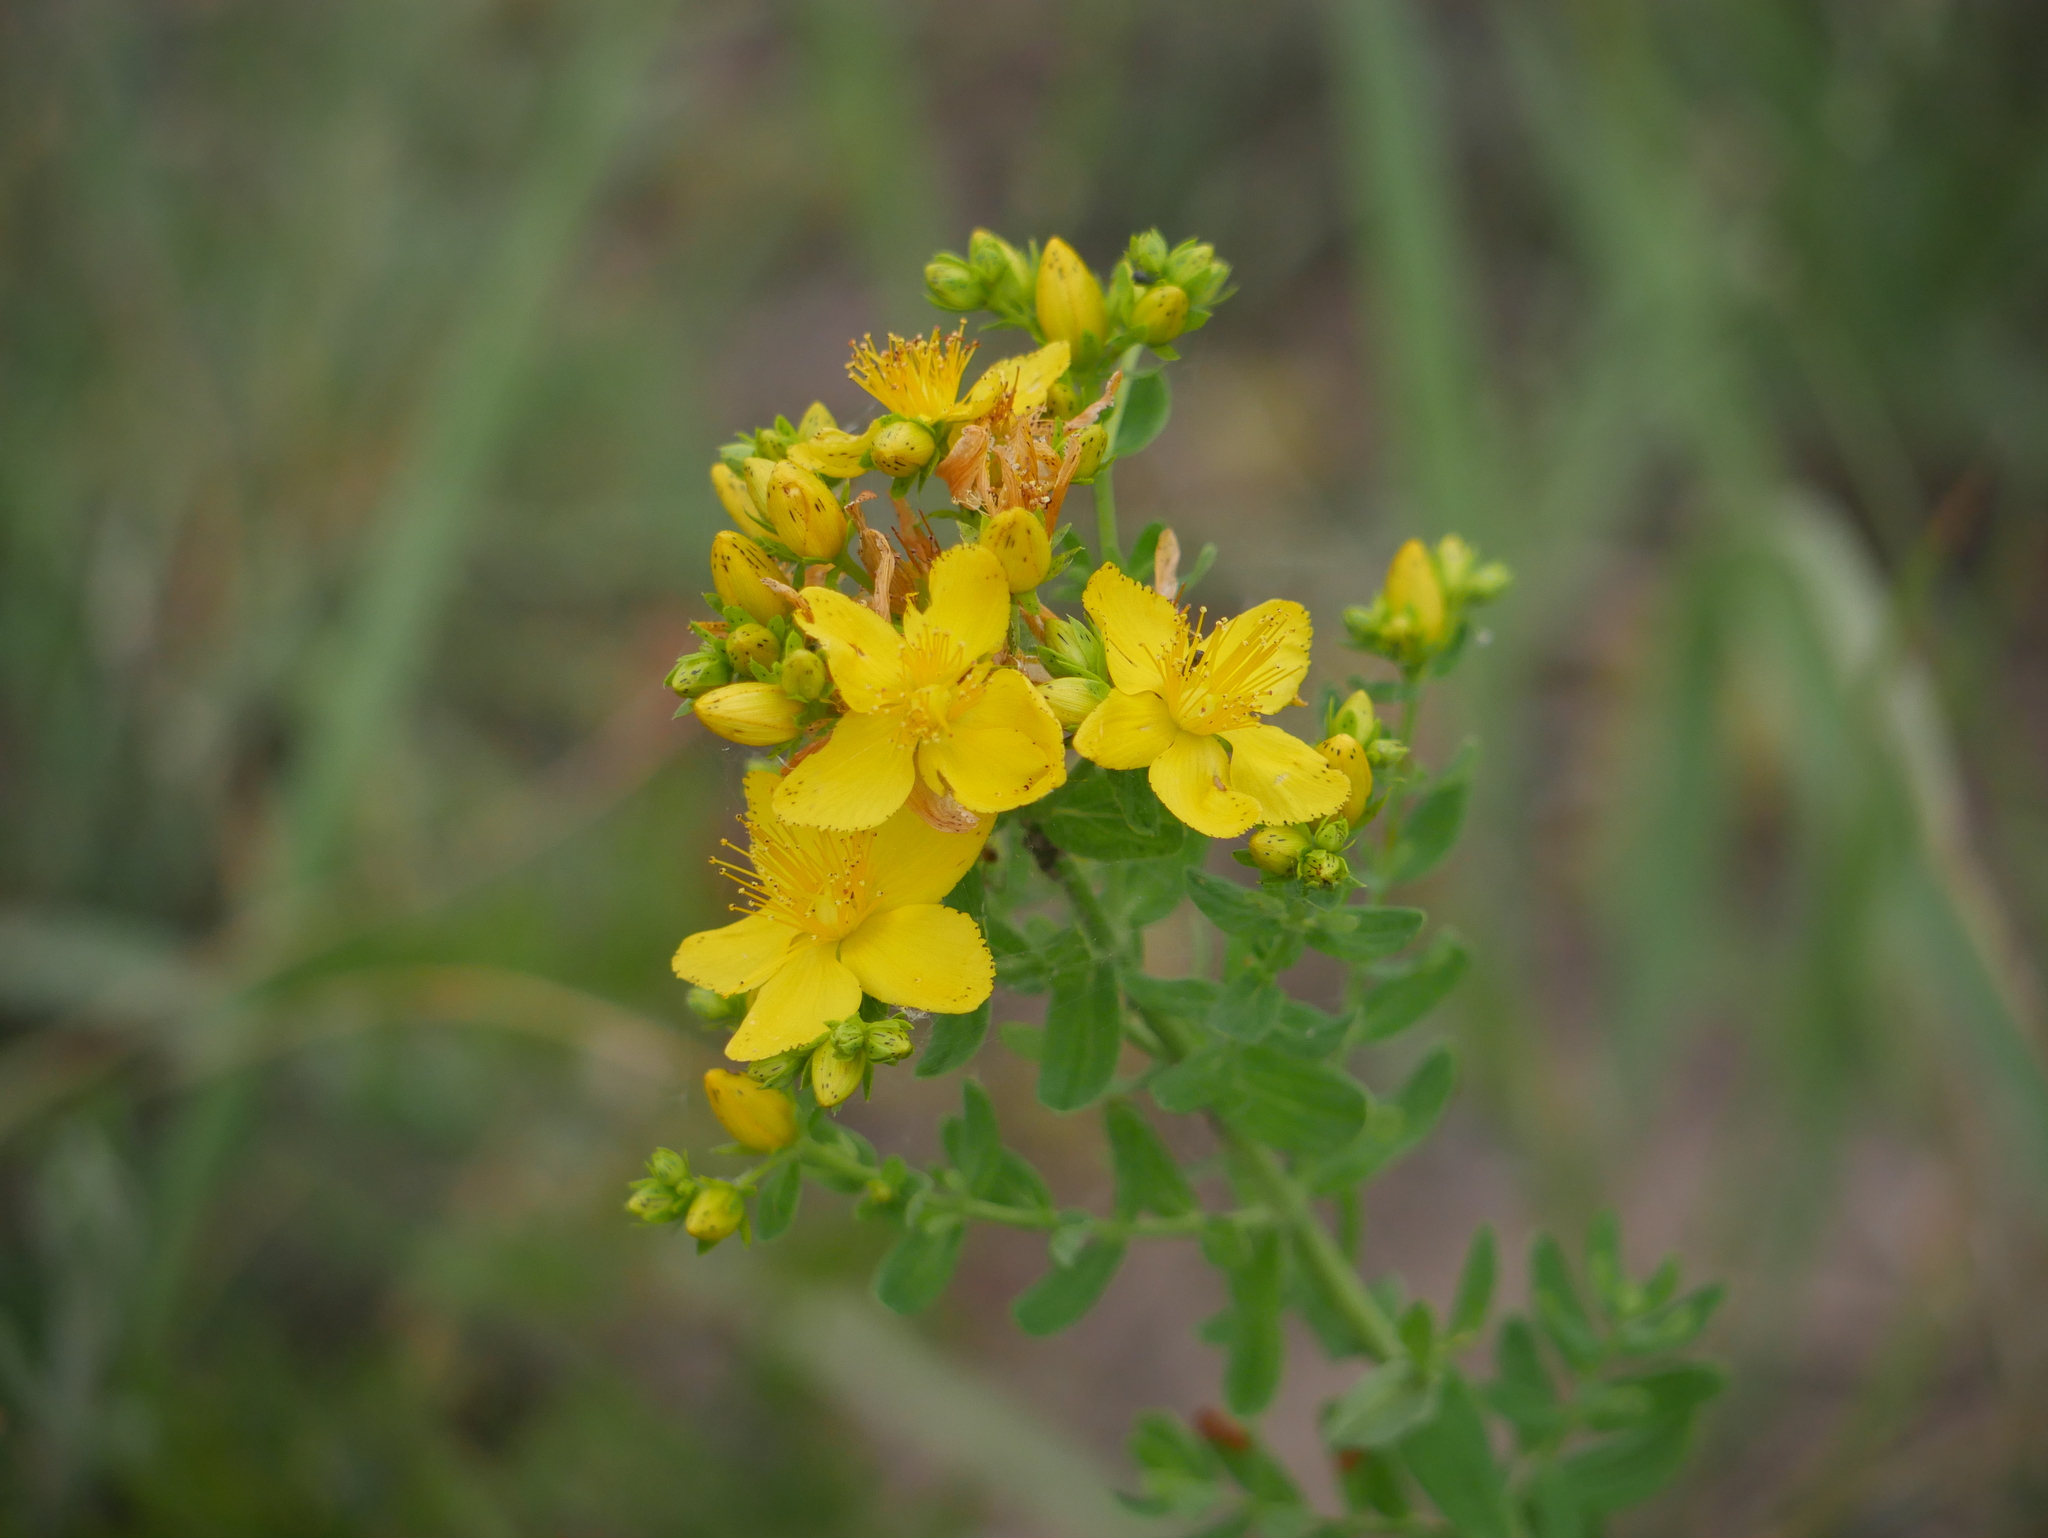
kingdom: Plantae
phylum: Tracheophyta
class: Magnoliopsida
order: Malpighiales
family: Hypericaceae
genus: Hypericum
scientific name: Hypericum perforatum
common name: Common st. johnswort
